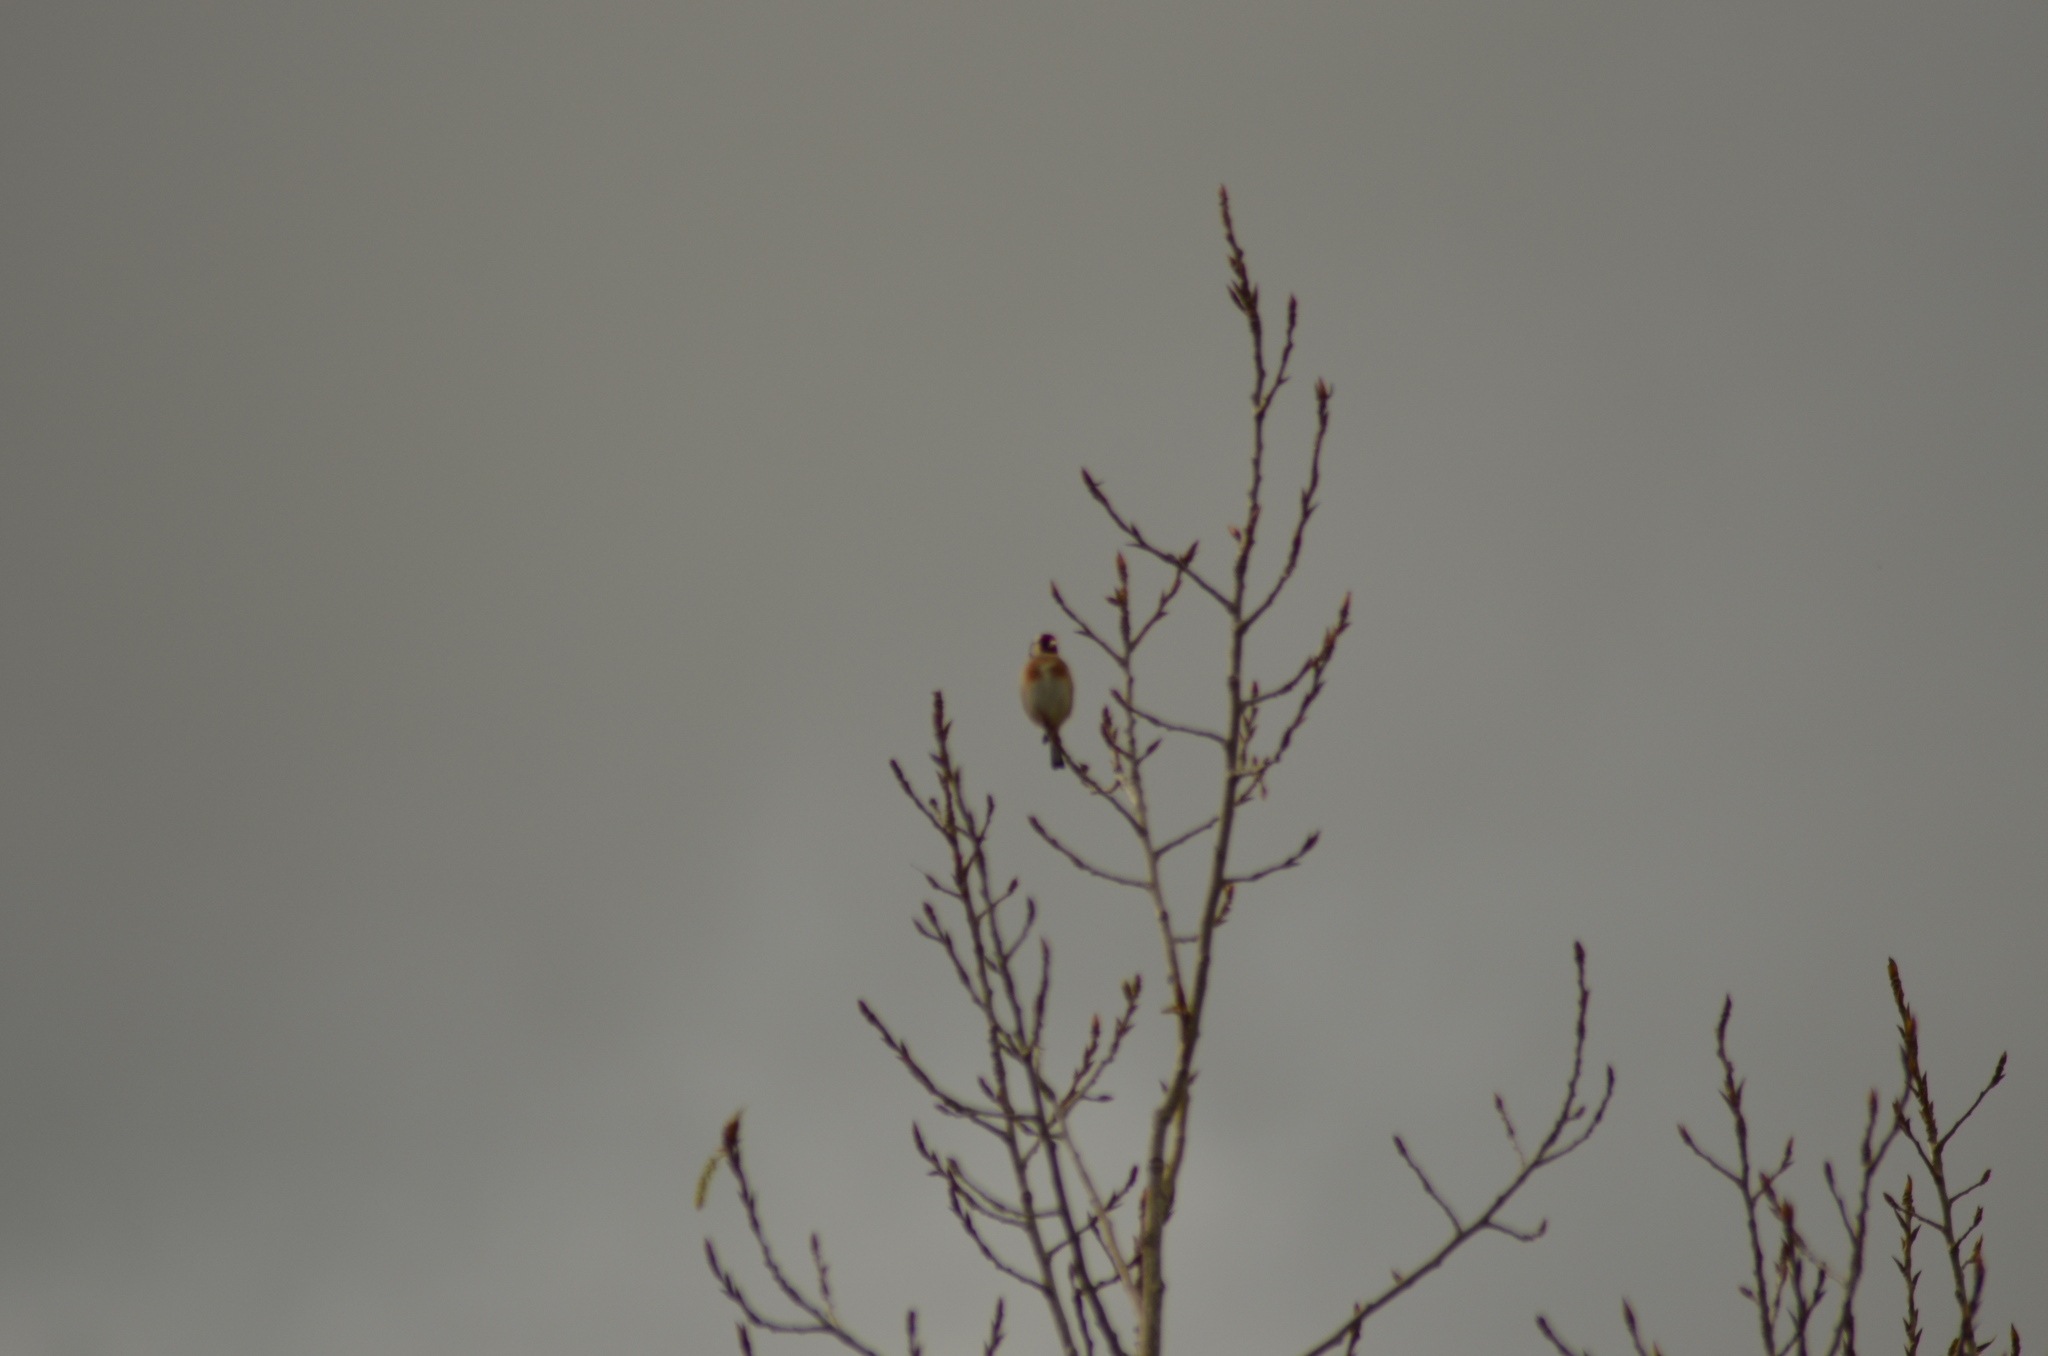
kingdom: Animalia
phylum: Chordata
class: Aves
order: Passeriformes
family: Fringillidae
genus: Carduelis
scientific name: Carduelis carduelis
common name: European goldfinch
